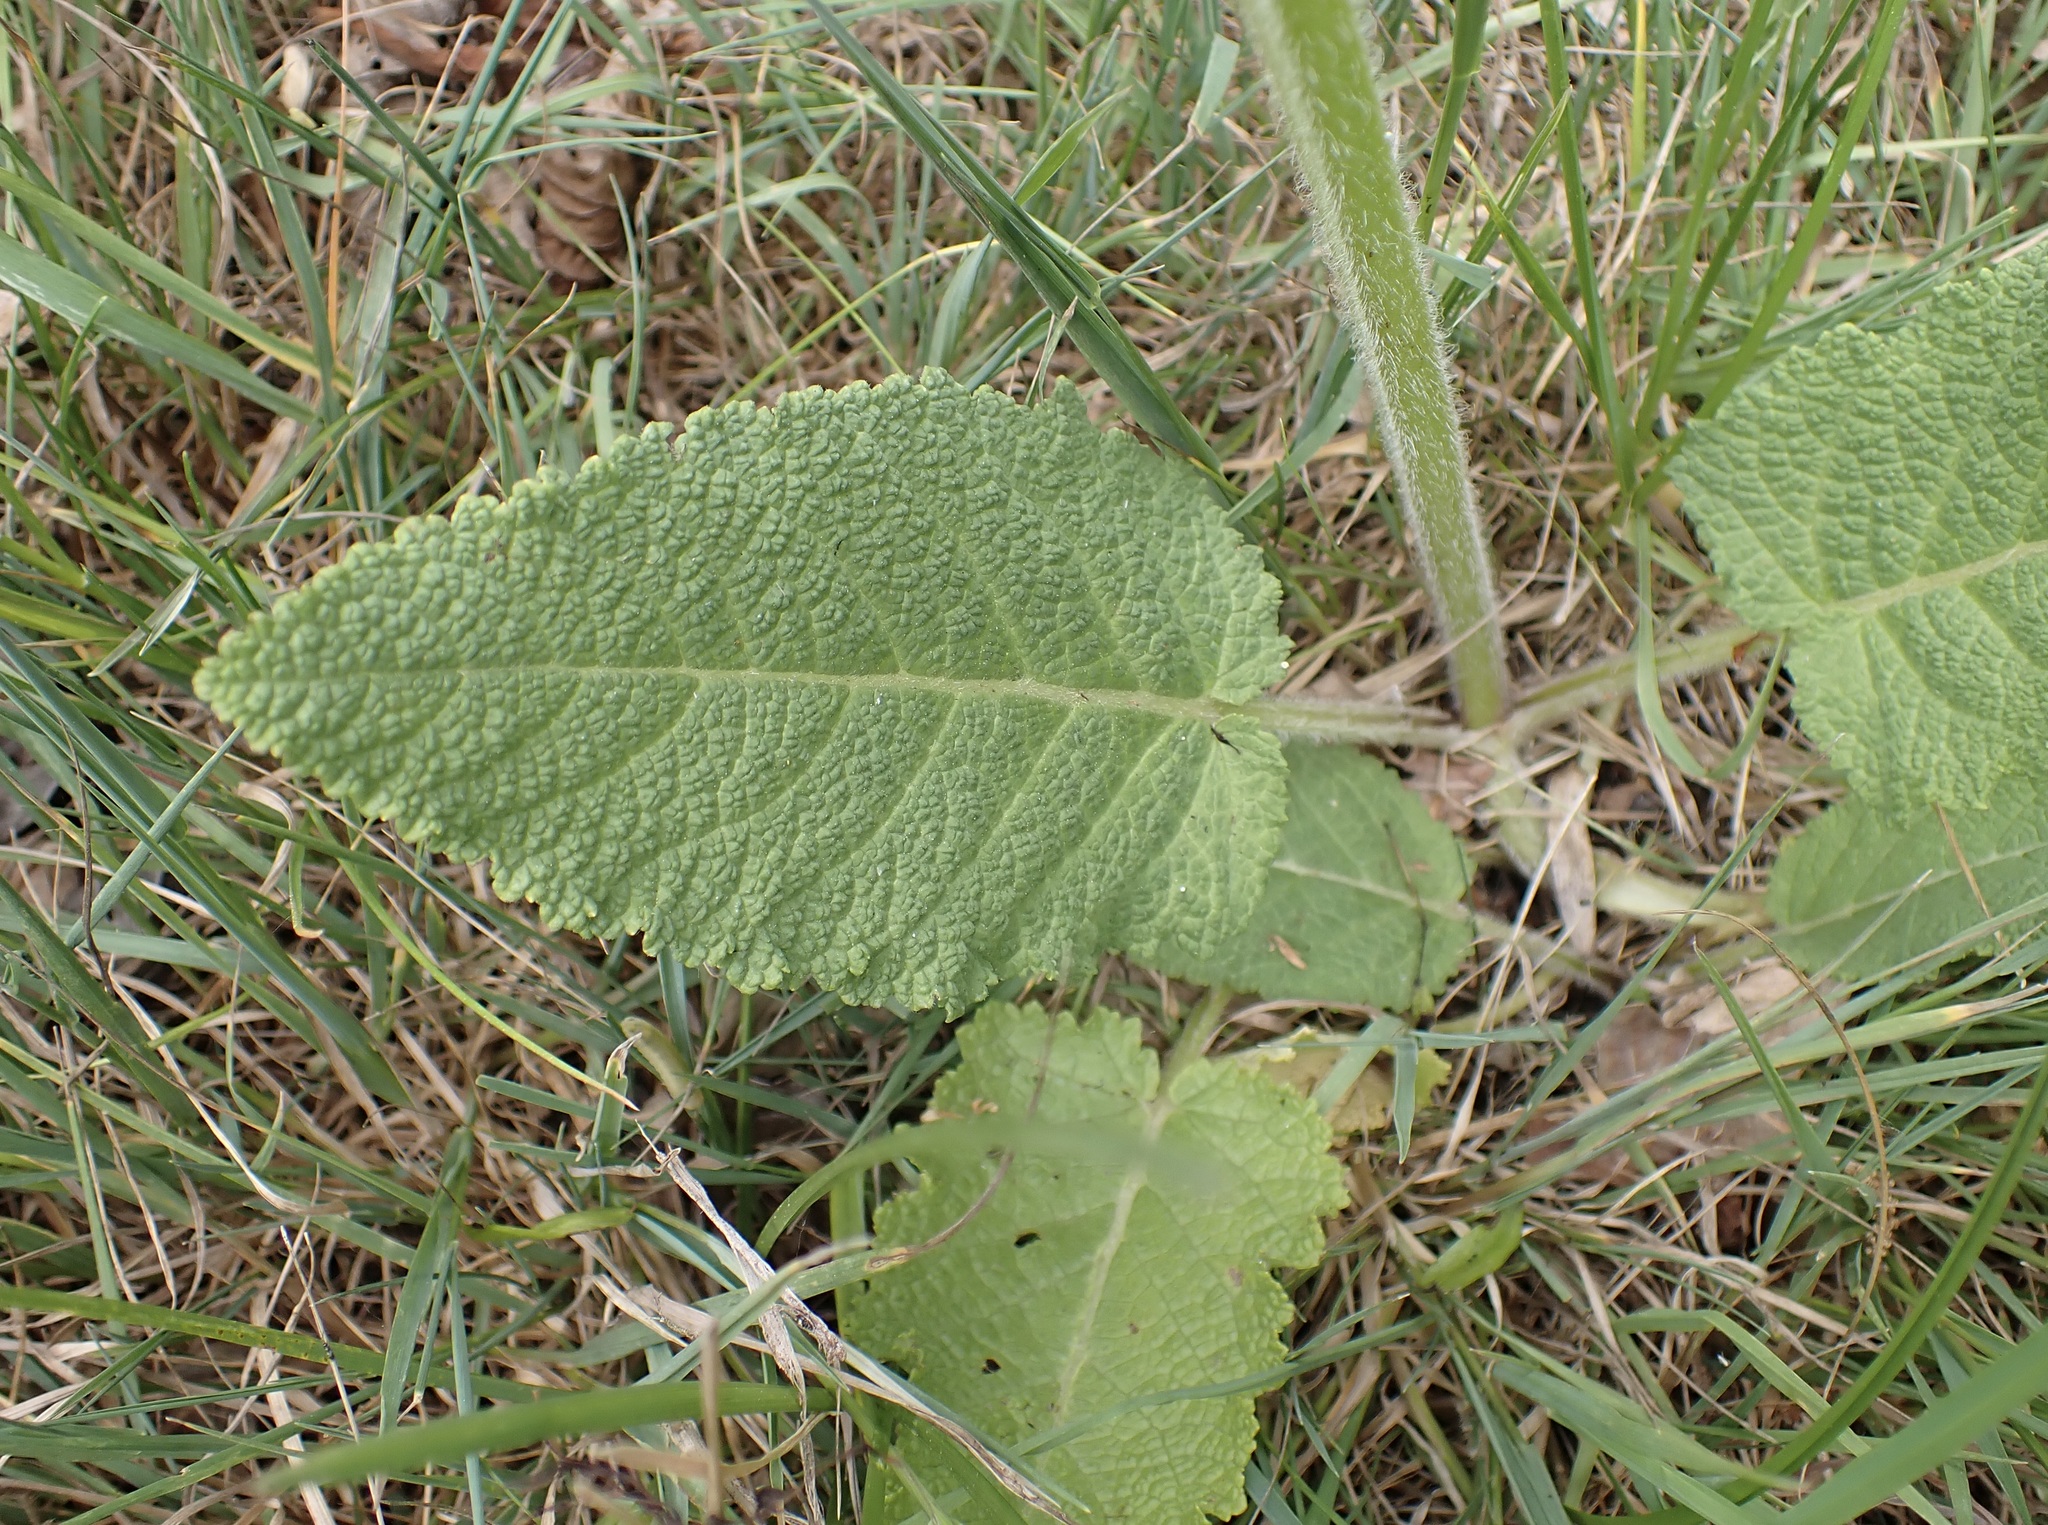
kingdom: Plantae
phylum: Tracheophyta
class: Magnoliopsida
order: Lamiales
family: Lamiaceae
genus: Salvia
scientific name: Salvia pratensis
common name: Meadow sage
